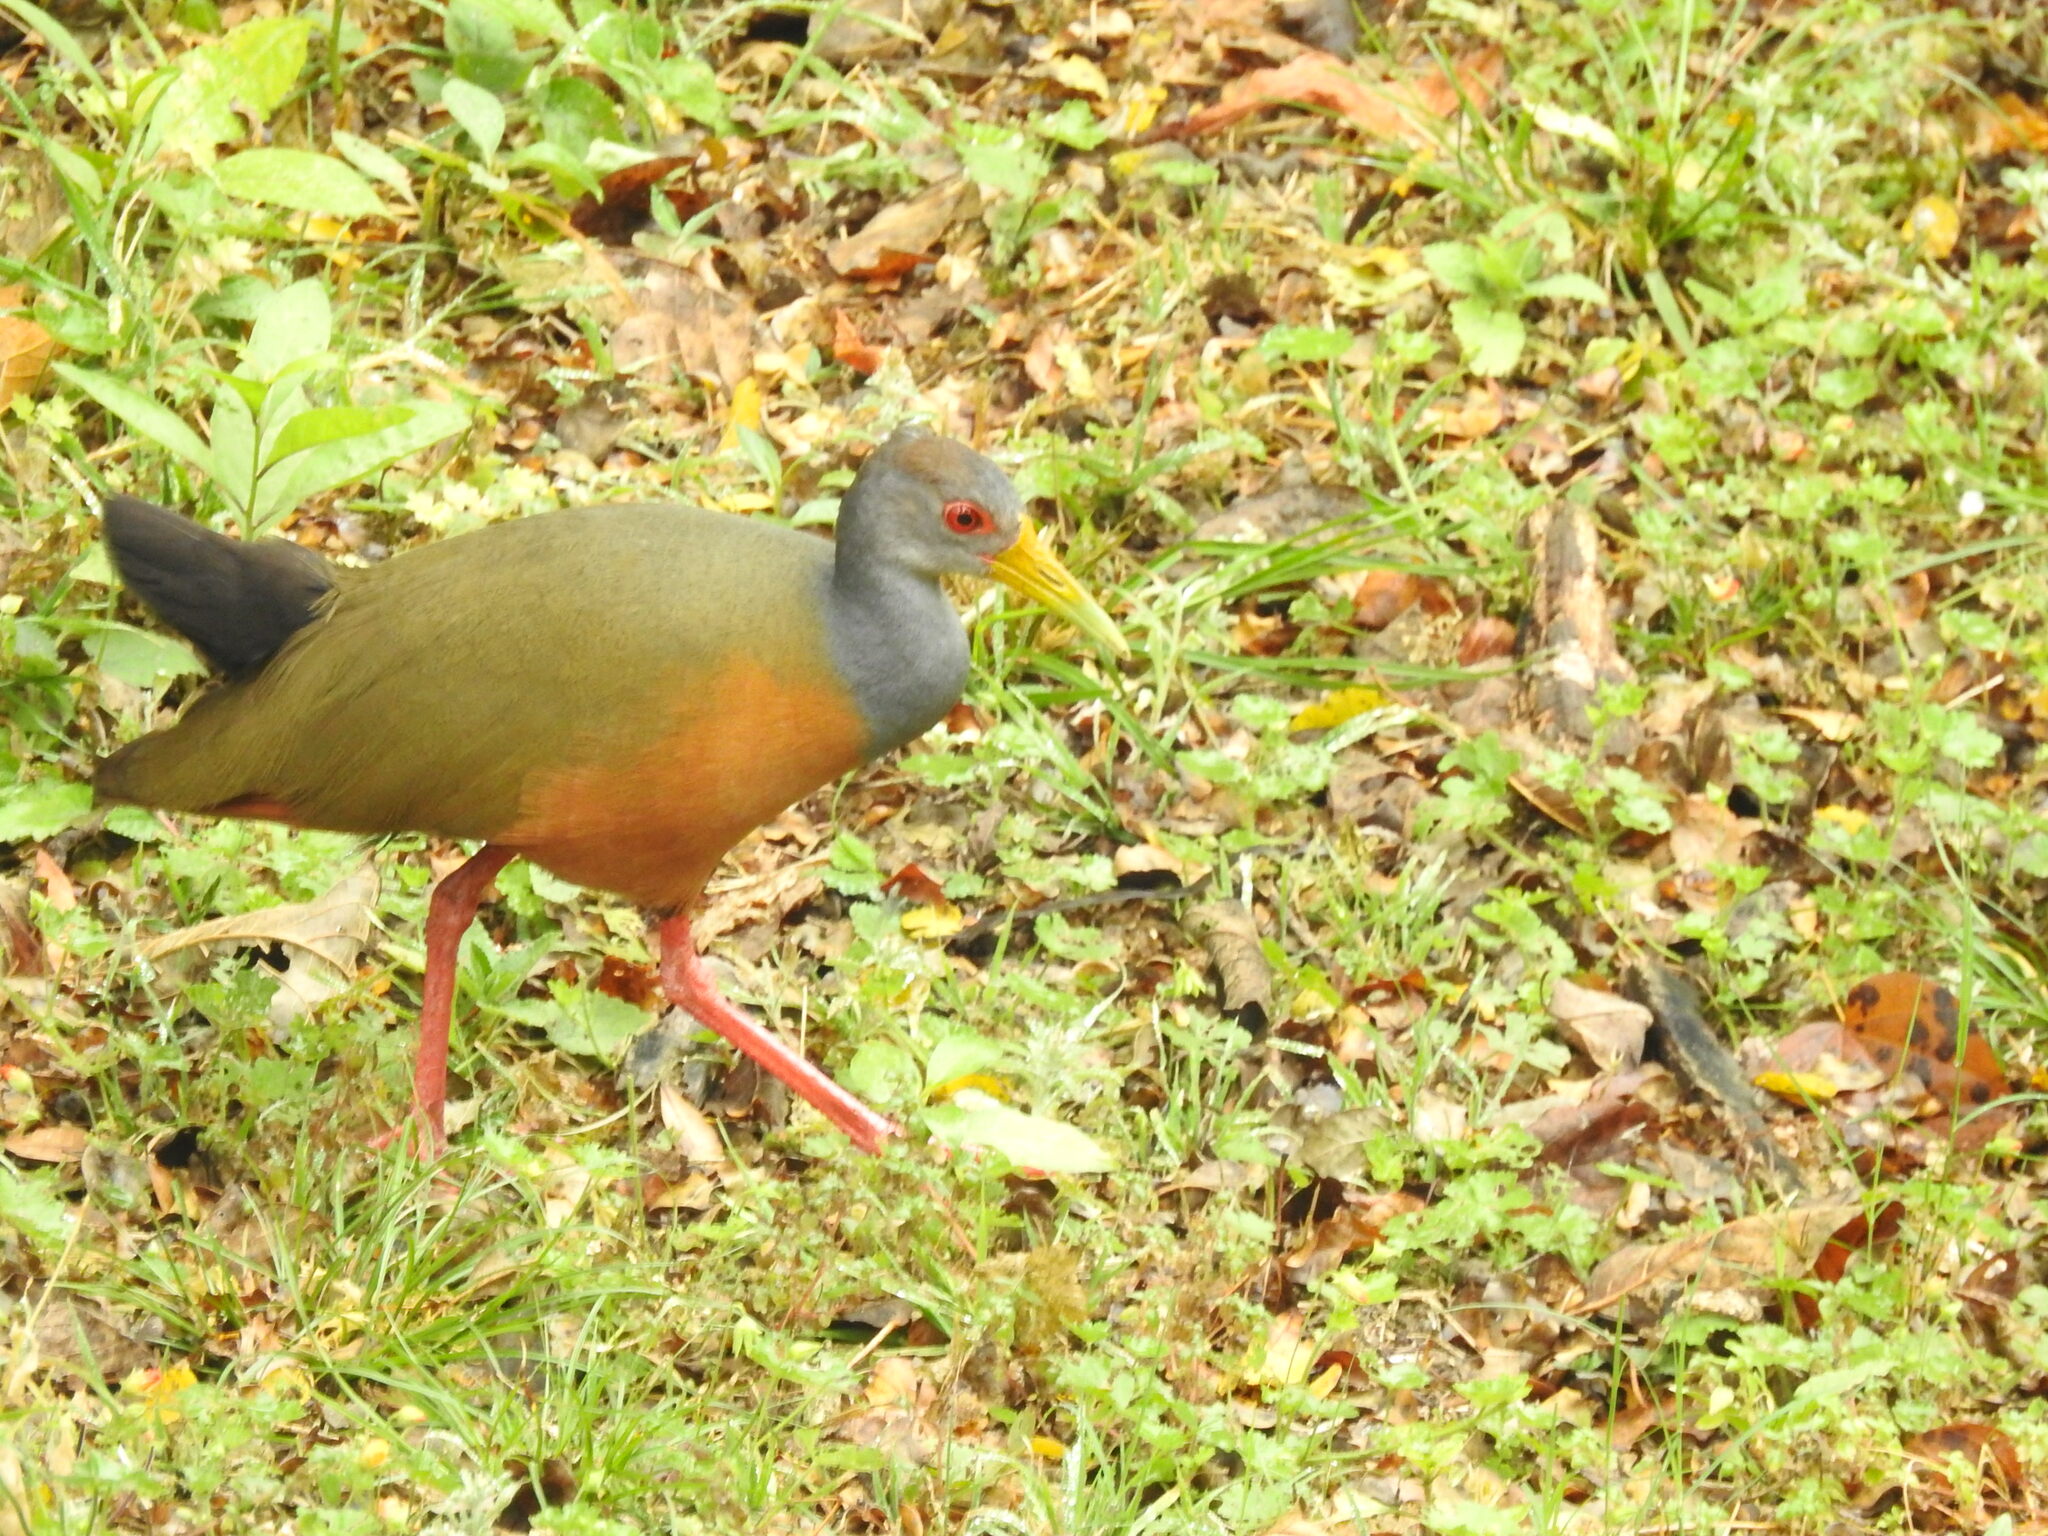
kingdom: Animalia
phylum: Chordata
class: Aves
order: Gruiformes
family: Rallidae
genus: Aramides
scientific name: Aramides cajanea
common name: Gray-necked wood-rail
